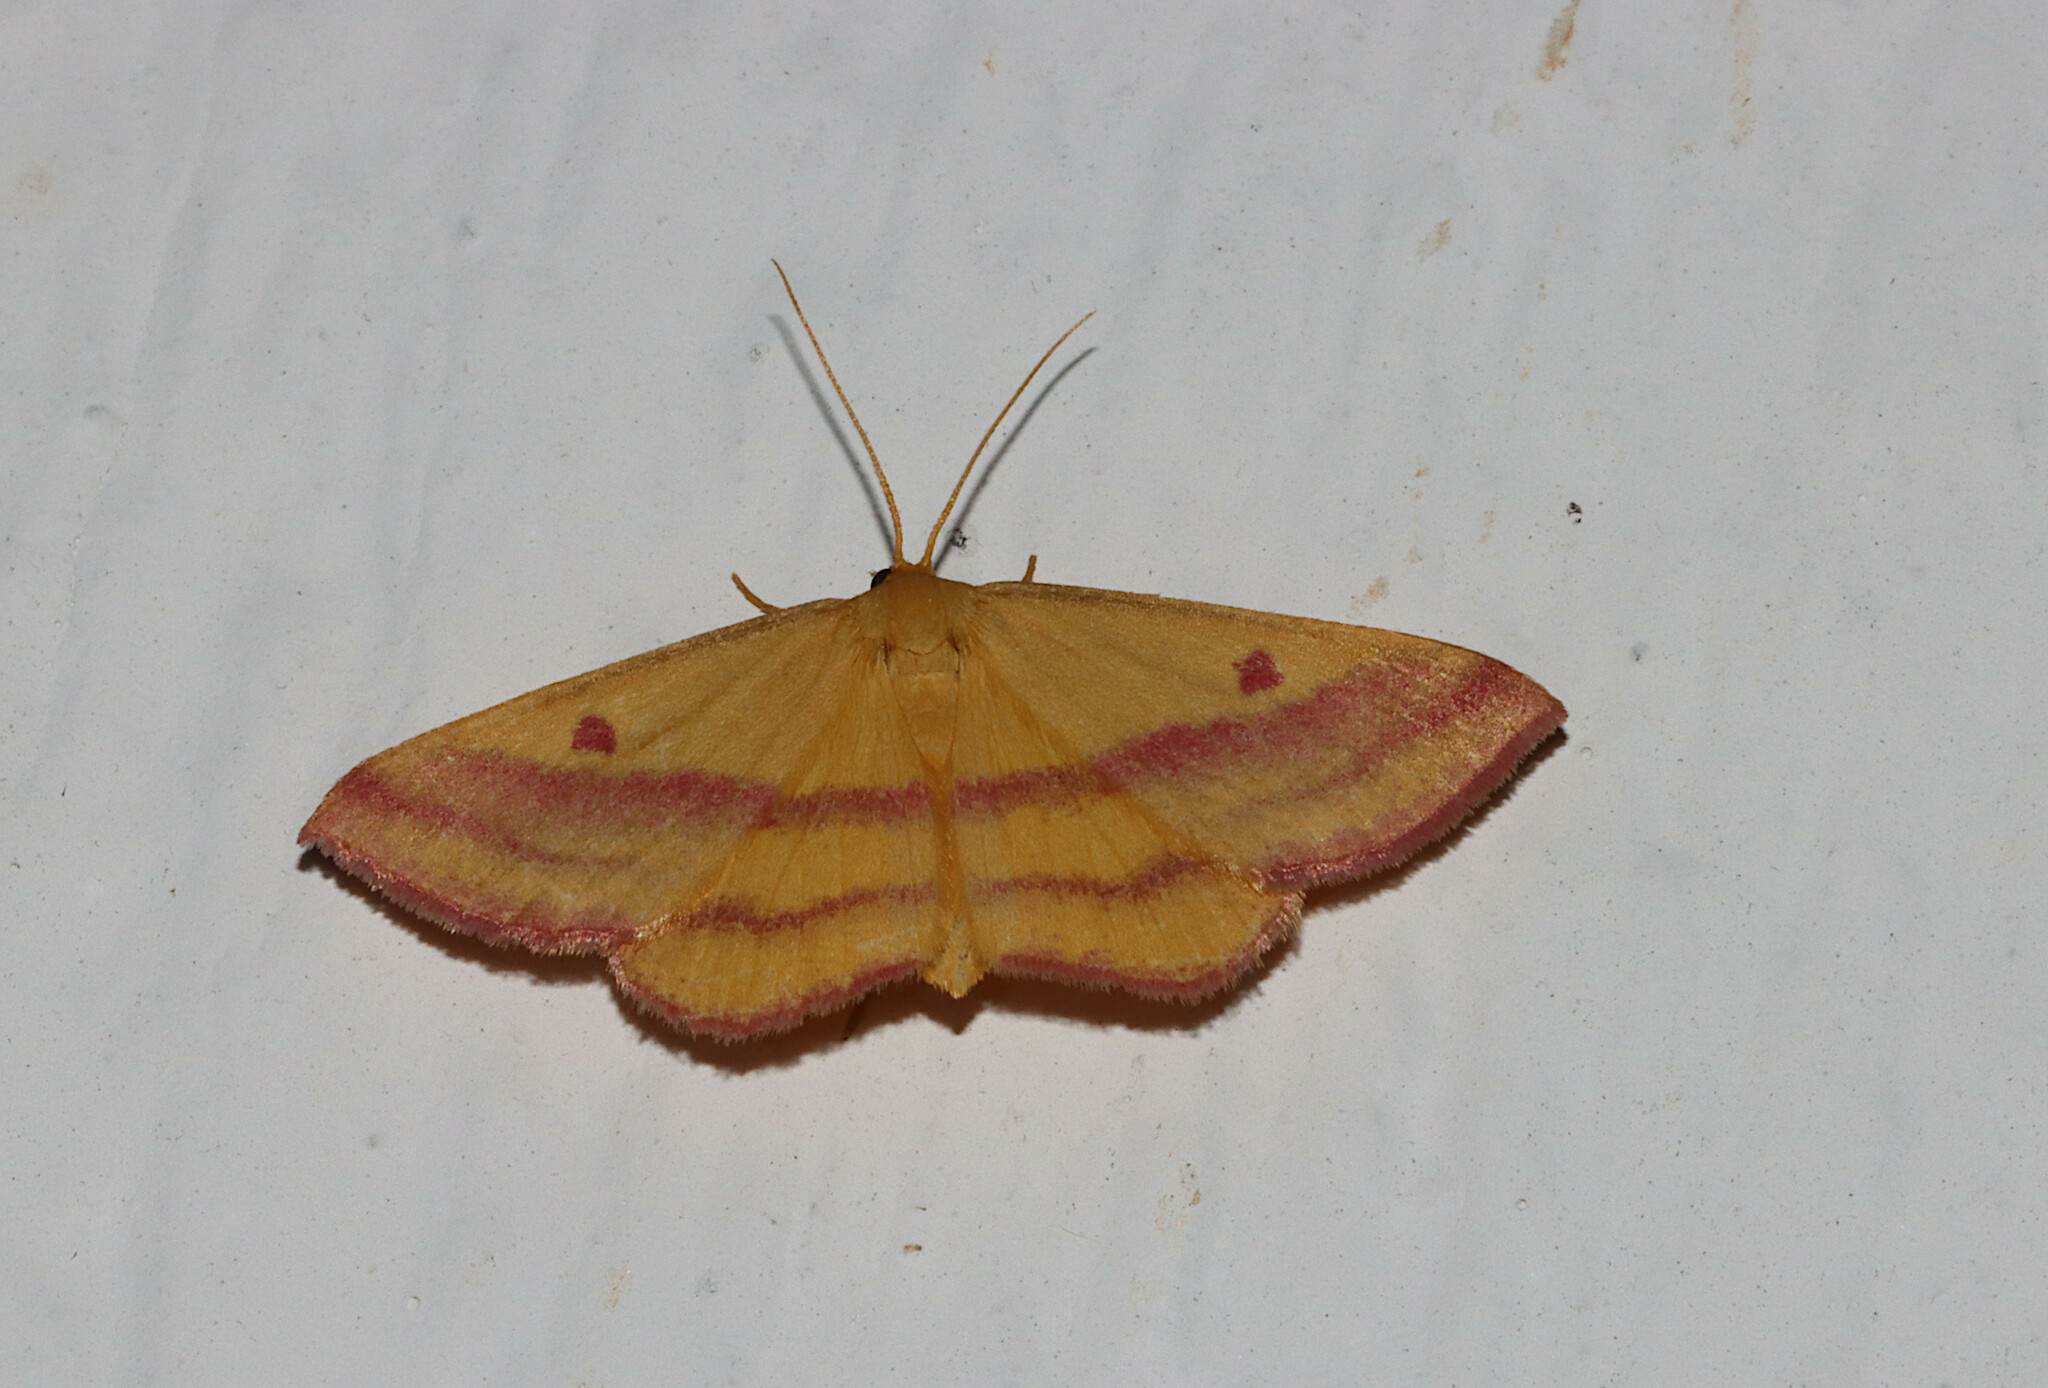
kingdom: Animalia
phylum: Arthropoda
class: Insecta
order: Lepidoptera
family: Geometridae
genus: Haematopis
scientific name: Haematopis grataria
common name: Chickweed geometer
